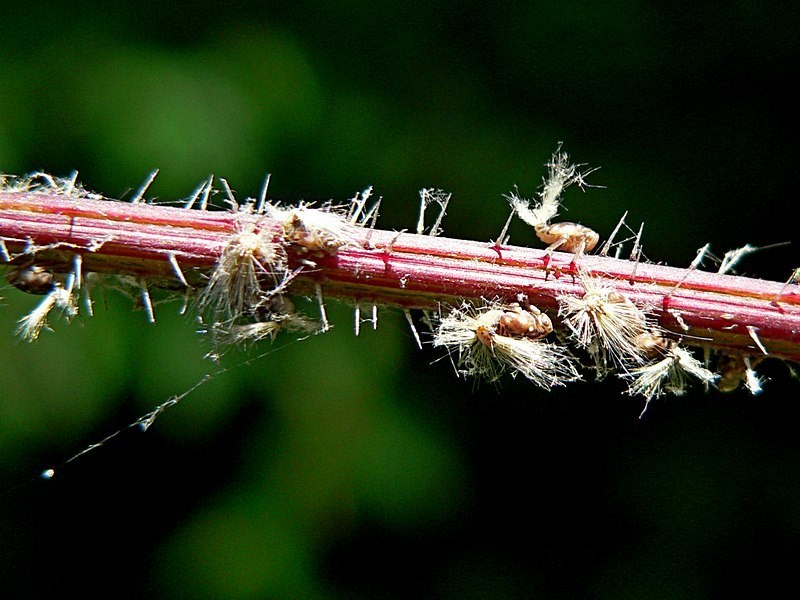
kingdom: Animalia
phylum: Arthropoda
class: Insecta
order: Hemiptera
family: Ricaniidae
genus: Scolypopa
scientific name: Scolypopa australis
